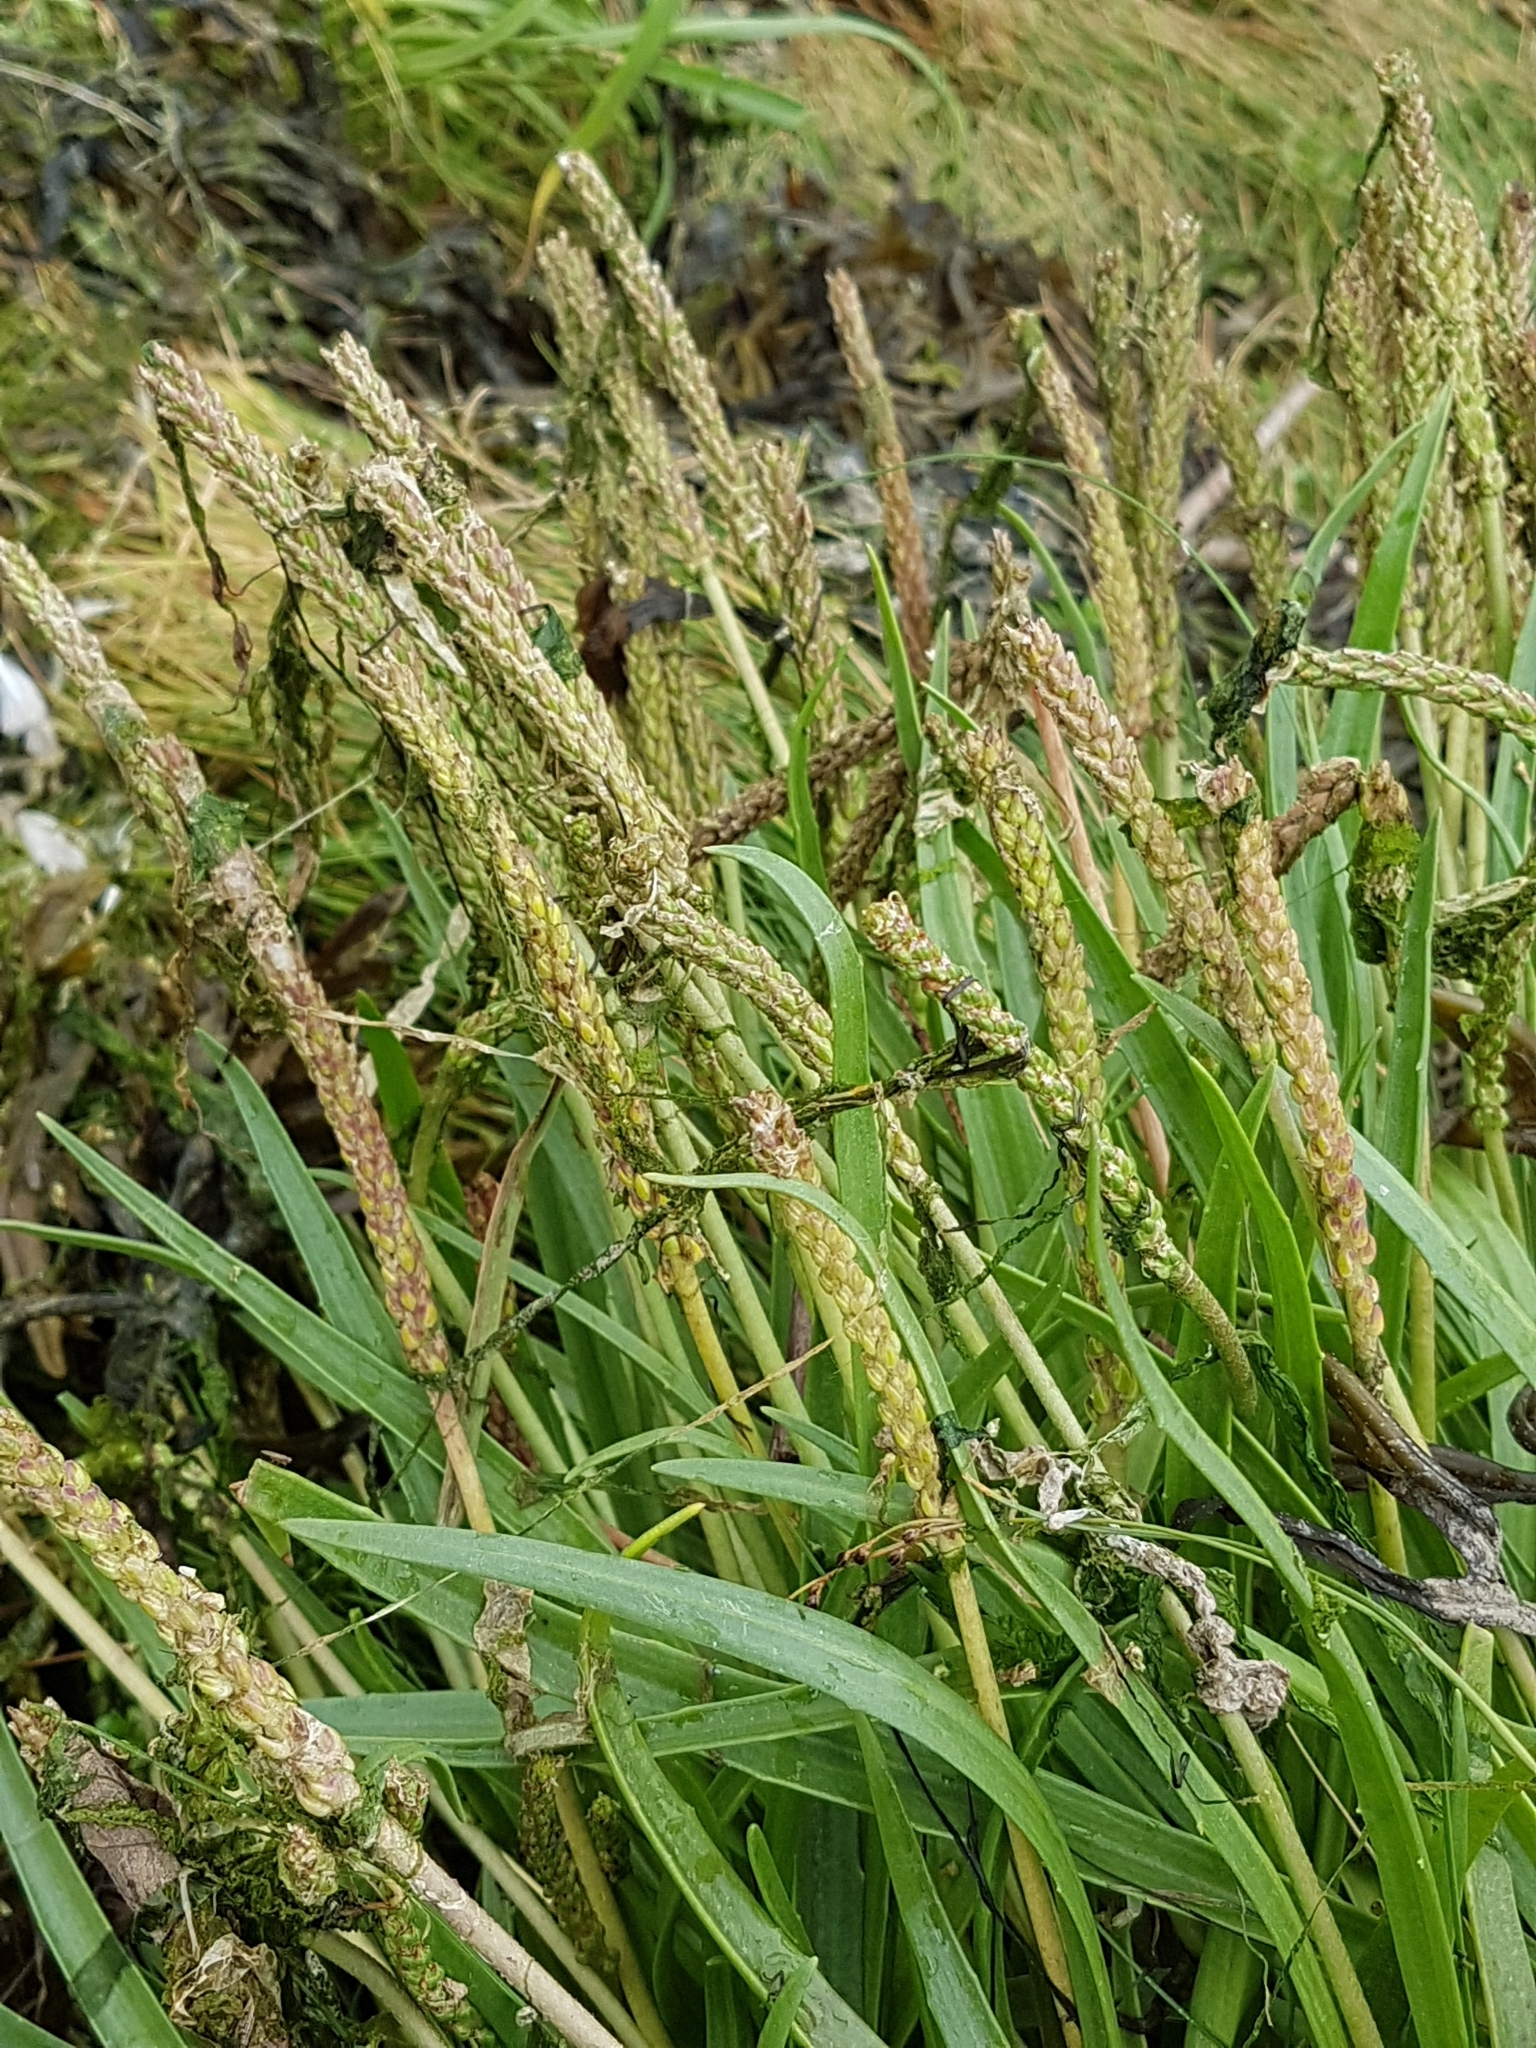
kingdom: Plantae
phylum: Tracheophyta
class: Magnoliopsida
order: Lamiales
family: Plantaginaceae
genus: Plantago
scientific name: Plantago maritima
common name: Sea plantain
